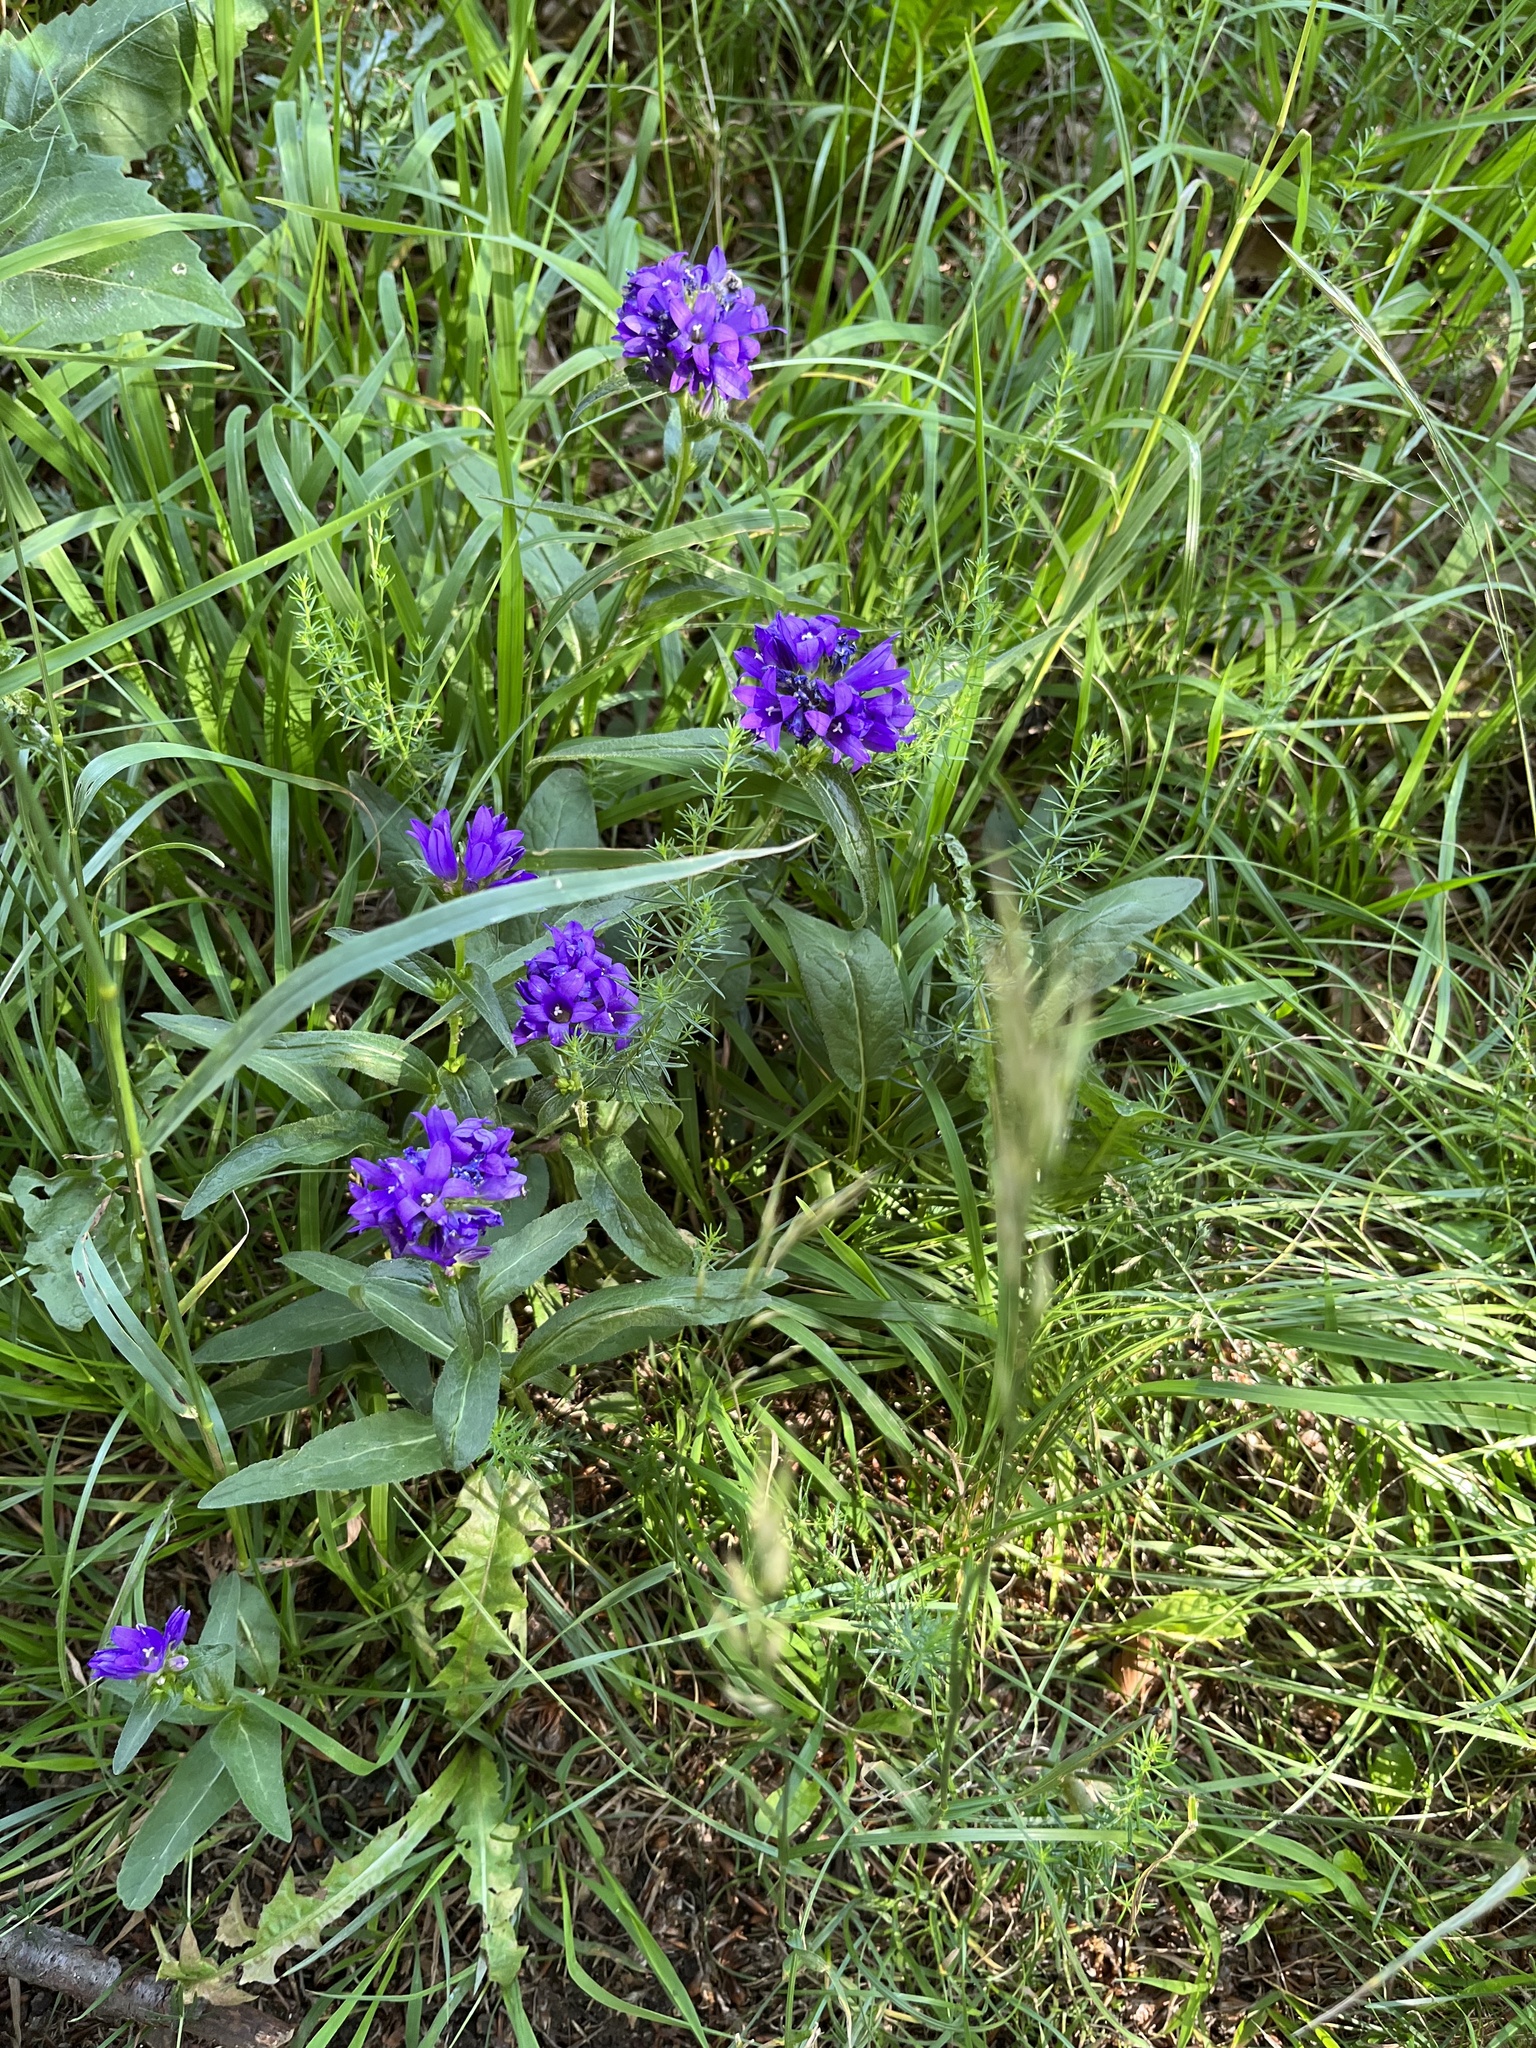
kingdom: Plantae
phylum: Tracheophyta
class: Magnoliopsida
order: Asterales
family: Campanulaceae
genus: Campanula
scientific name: Campanula glomerata
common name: Clustered bellflower
